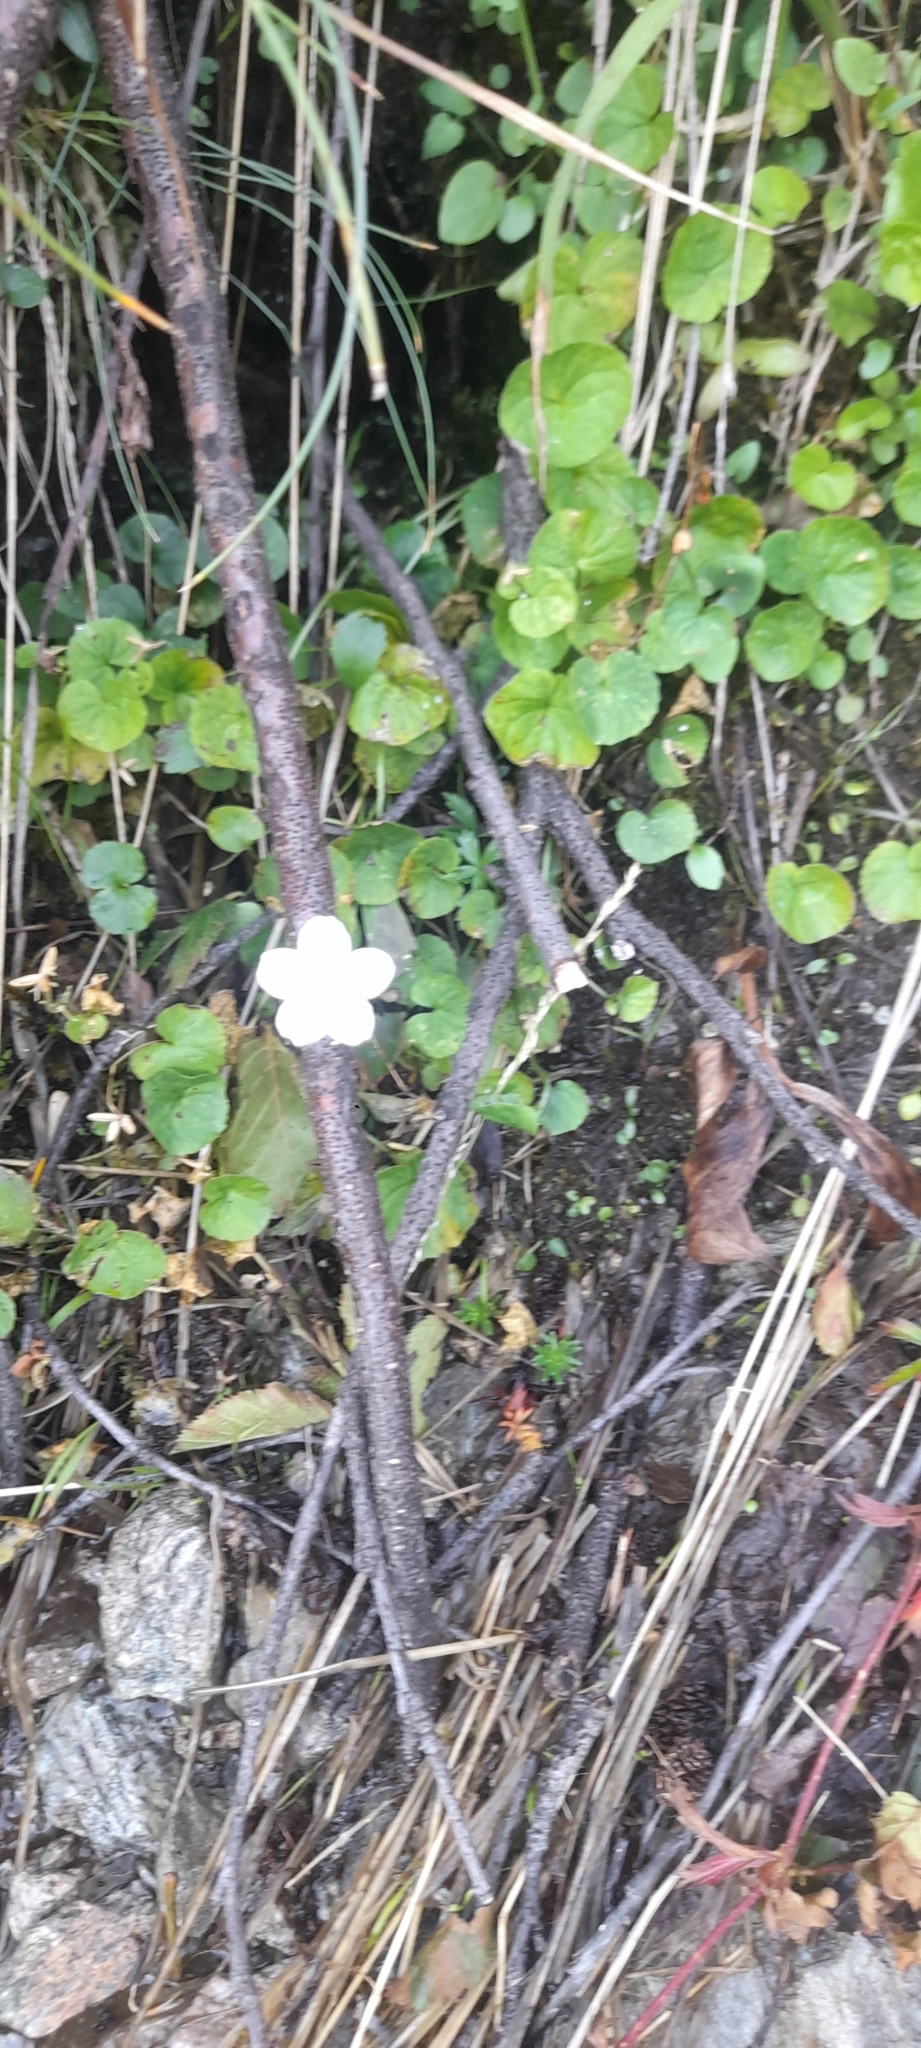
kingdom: Plantae
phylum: Tracheophyta
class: Magnoliopsida
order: Celastrales
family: Parnassiaceae
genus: Parnassia
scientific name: Parnassia palustris
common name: Grass-of-parnassus
